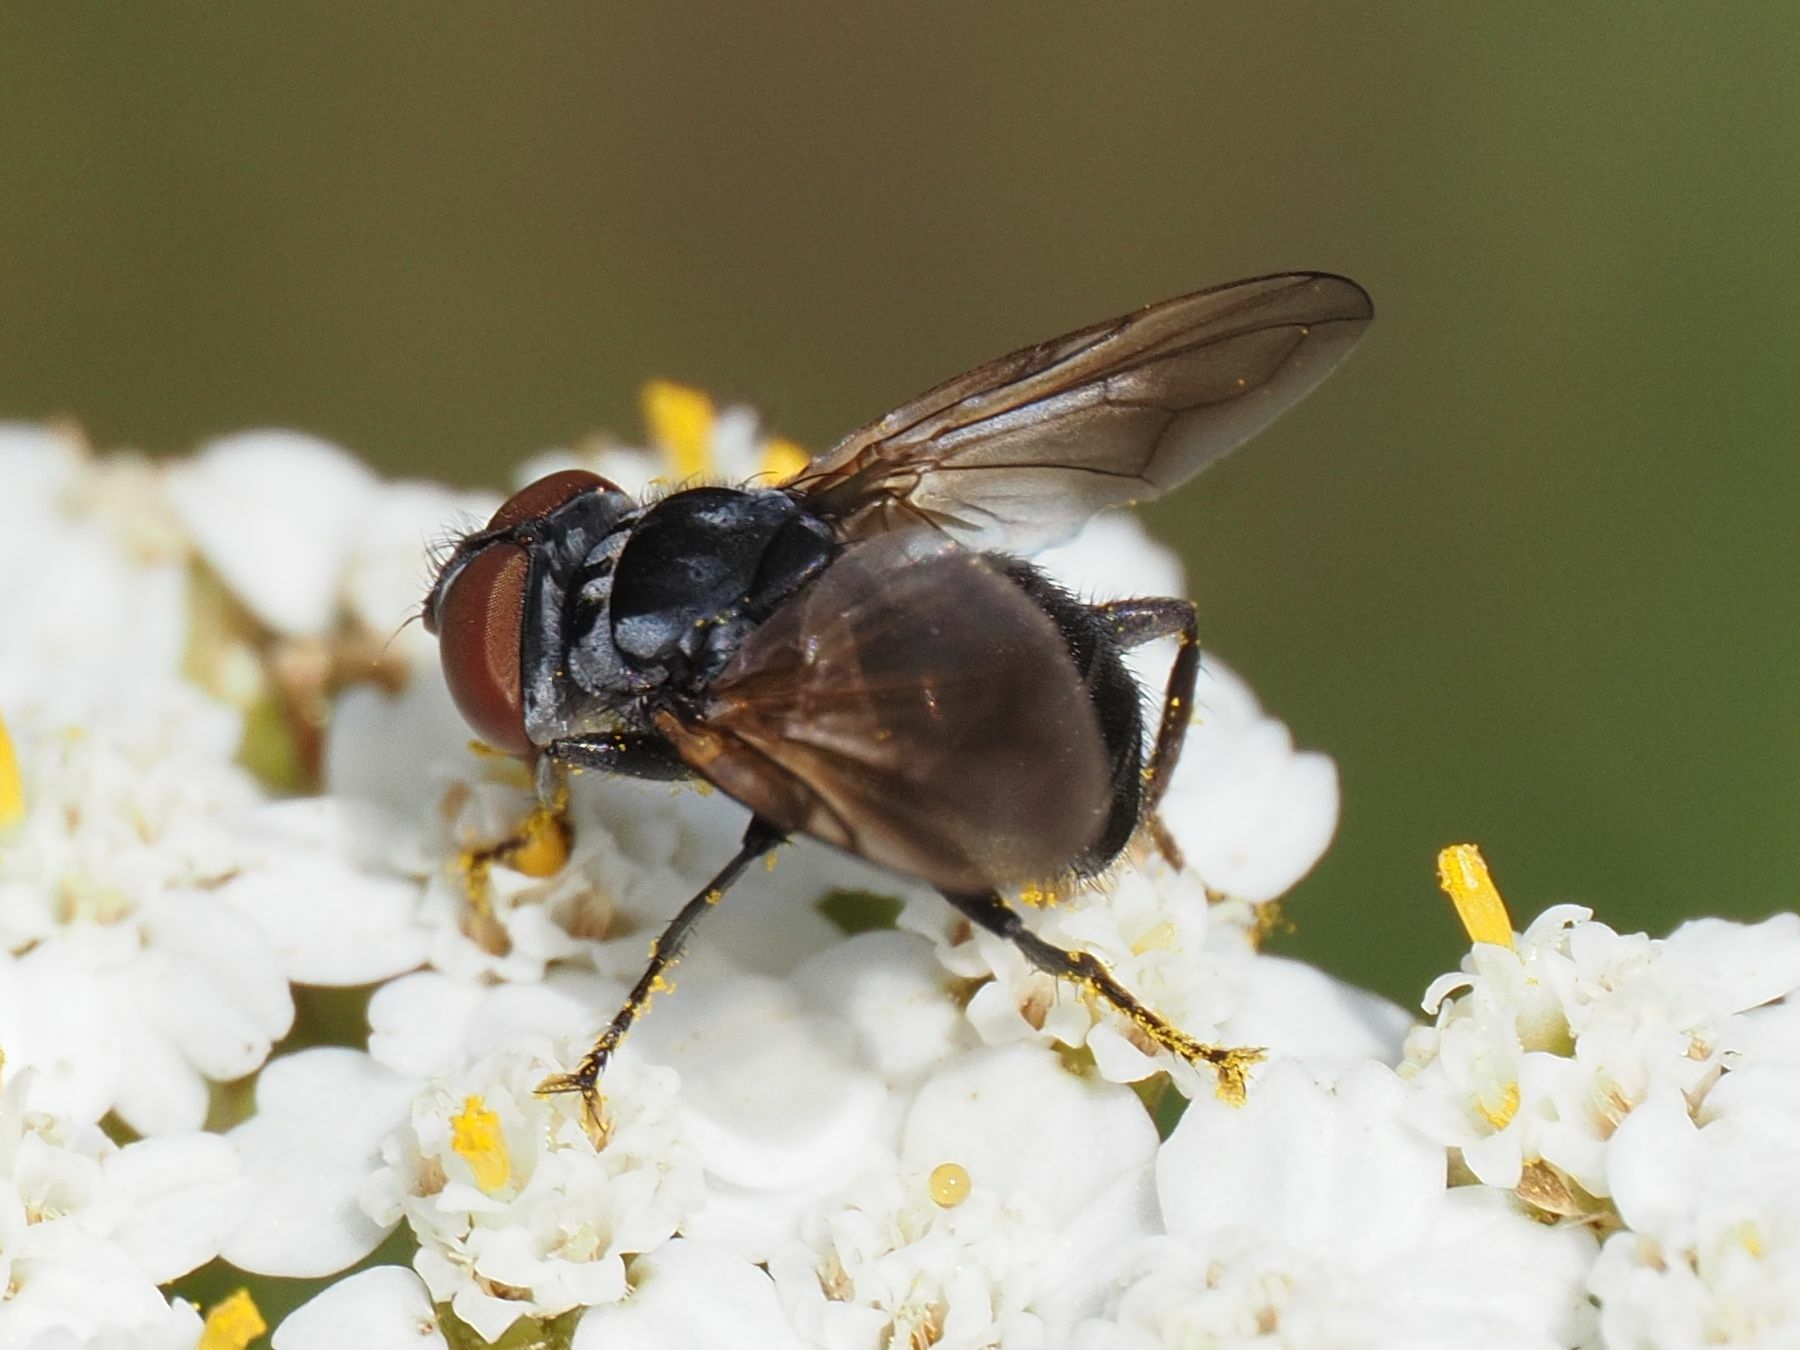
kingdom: Animalia
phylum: Arthropoda
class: Insecta
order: Diptera
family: Tachinidae
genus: Phasia
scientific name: Phasia obesa
